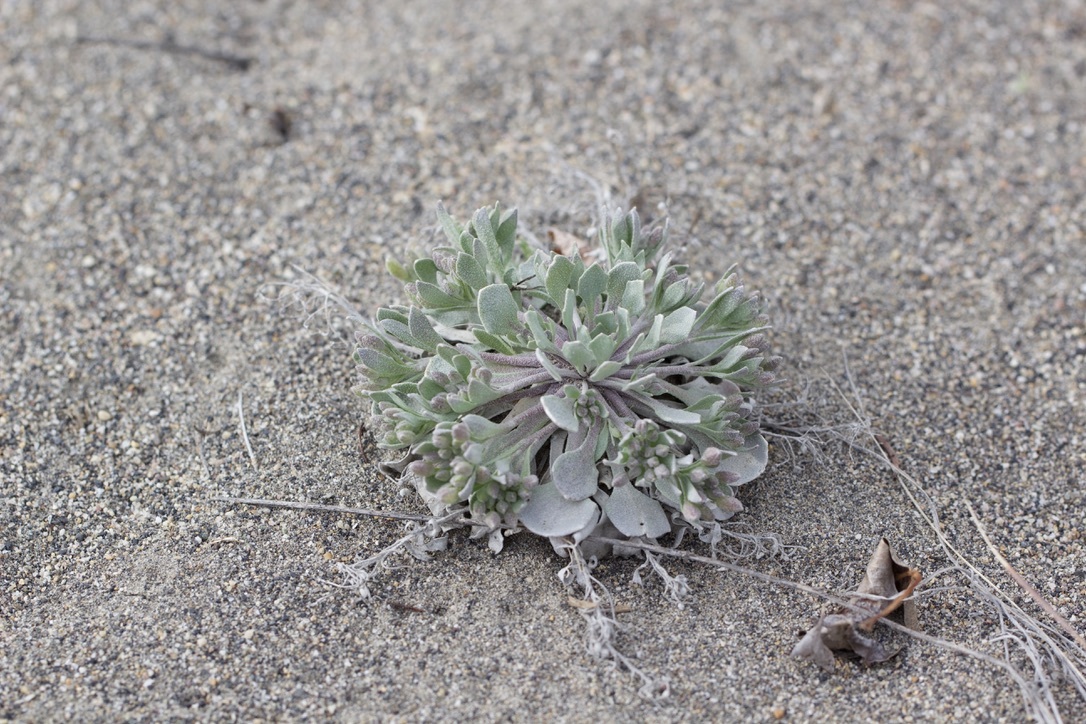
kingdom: Plantae
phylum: Tracheophyta
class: Magnoliopsida
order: Brassicales
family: Brassicaceae
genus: Physaria
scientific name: Physaria didymocarpa
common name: Common twinpod
